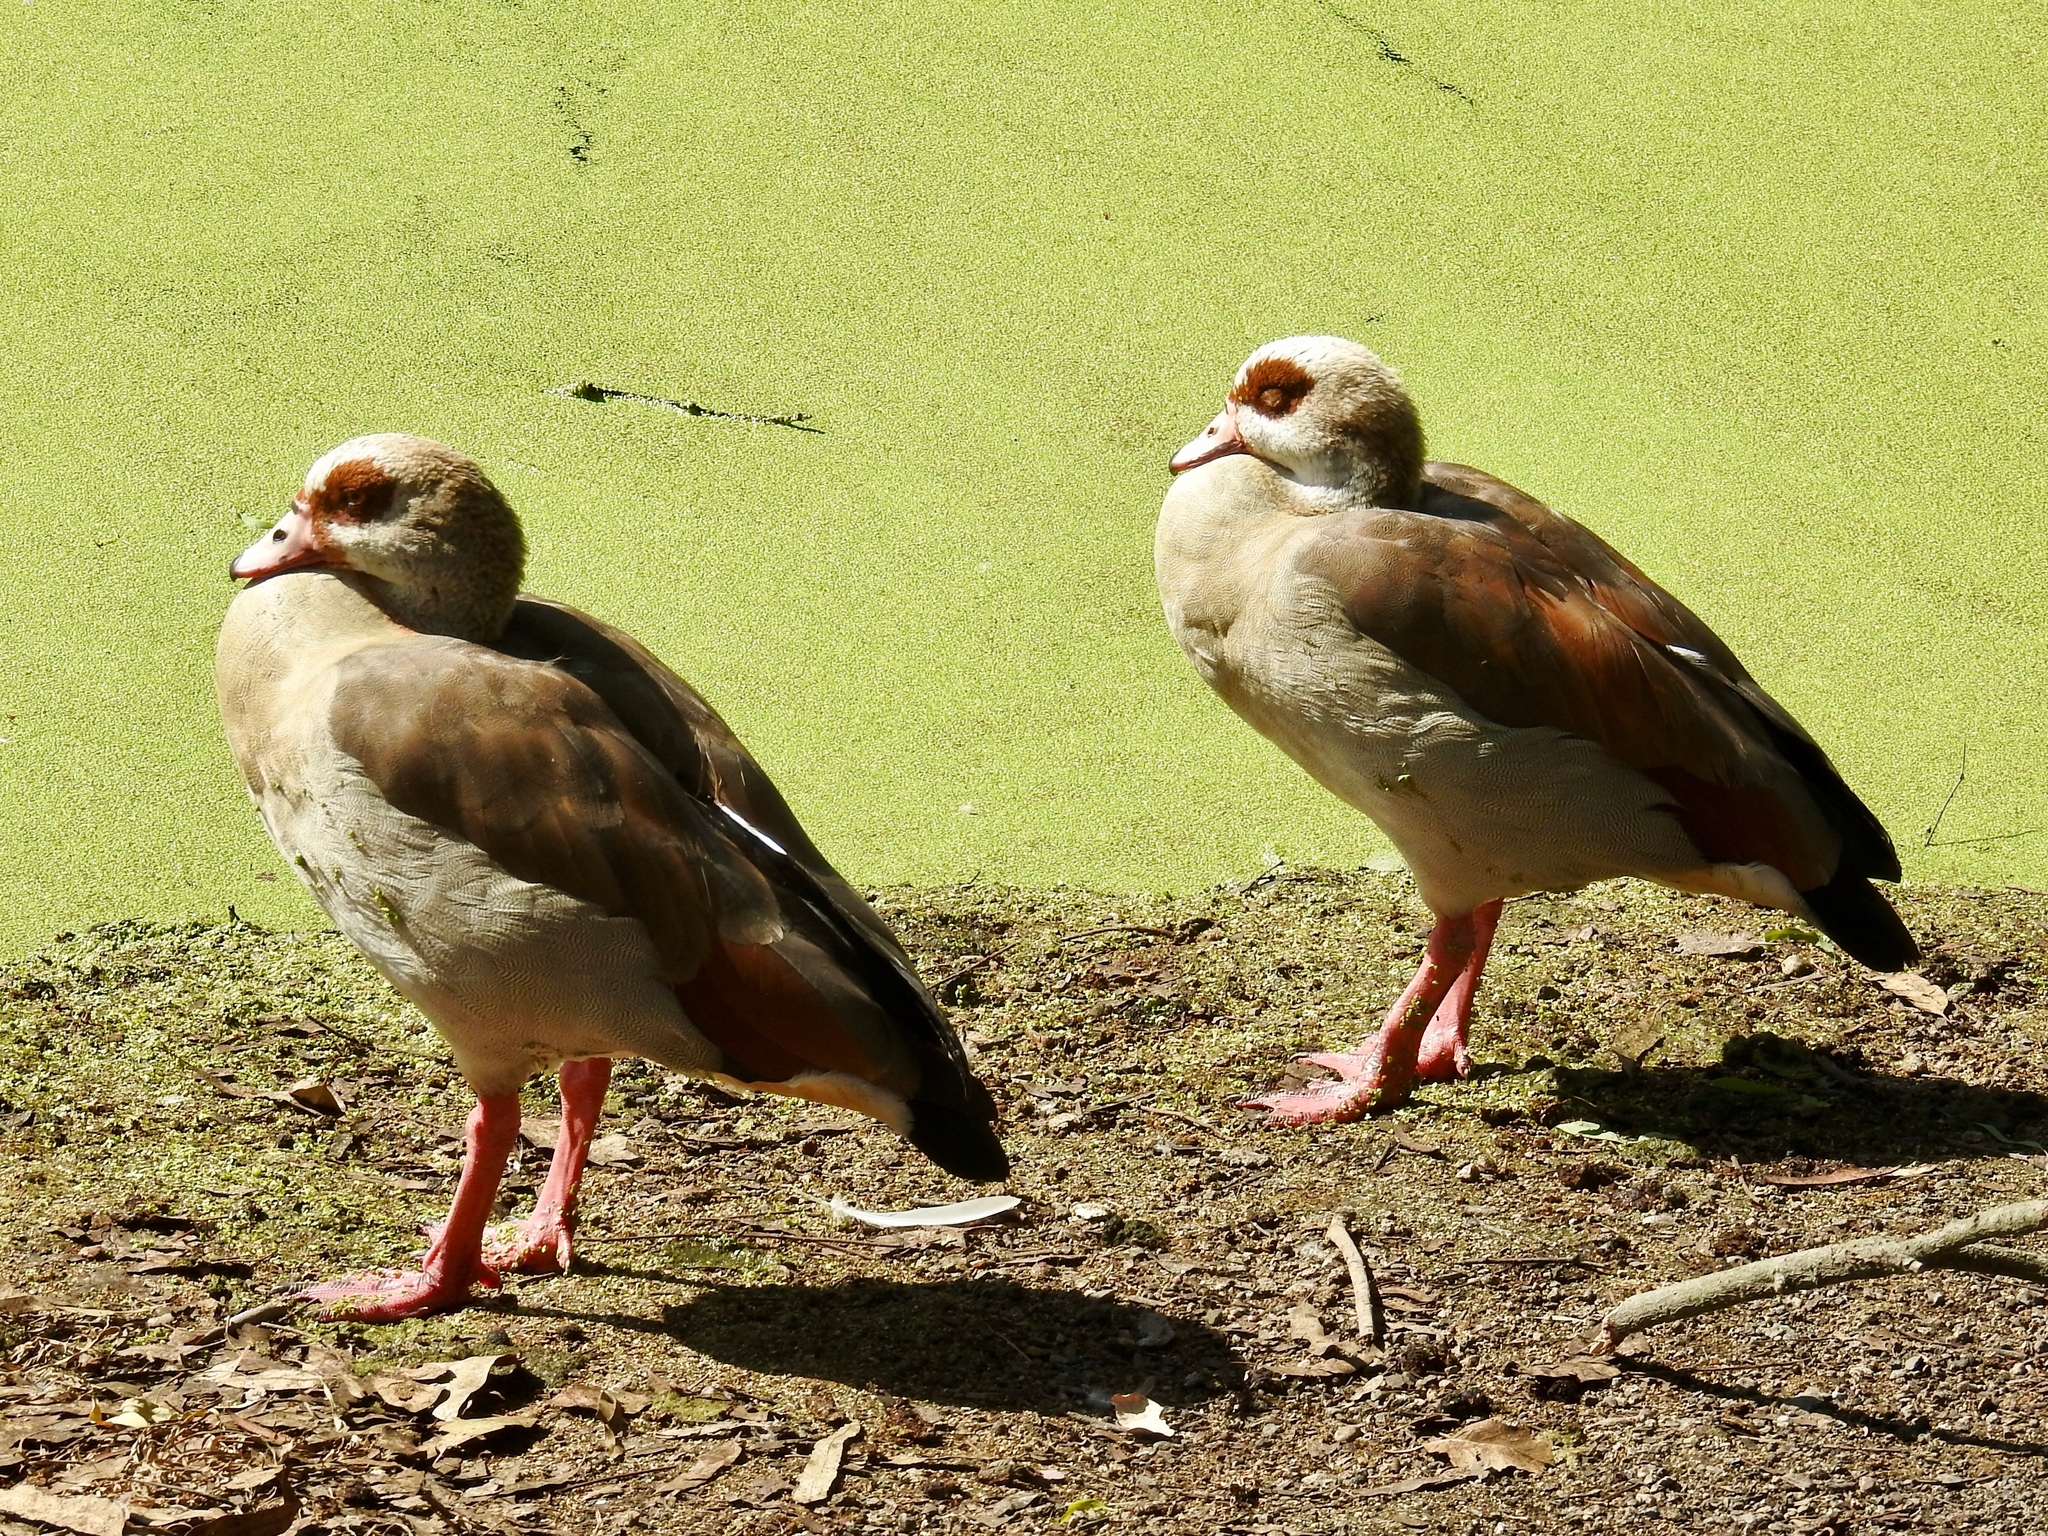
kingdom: Animalia
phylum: Chordata
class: Aves
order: Anseriformes
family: Anatidae
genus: Alopochen
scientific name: Alopochen aegyptiaca
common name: Egyptian goose
